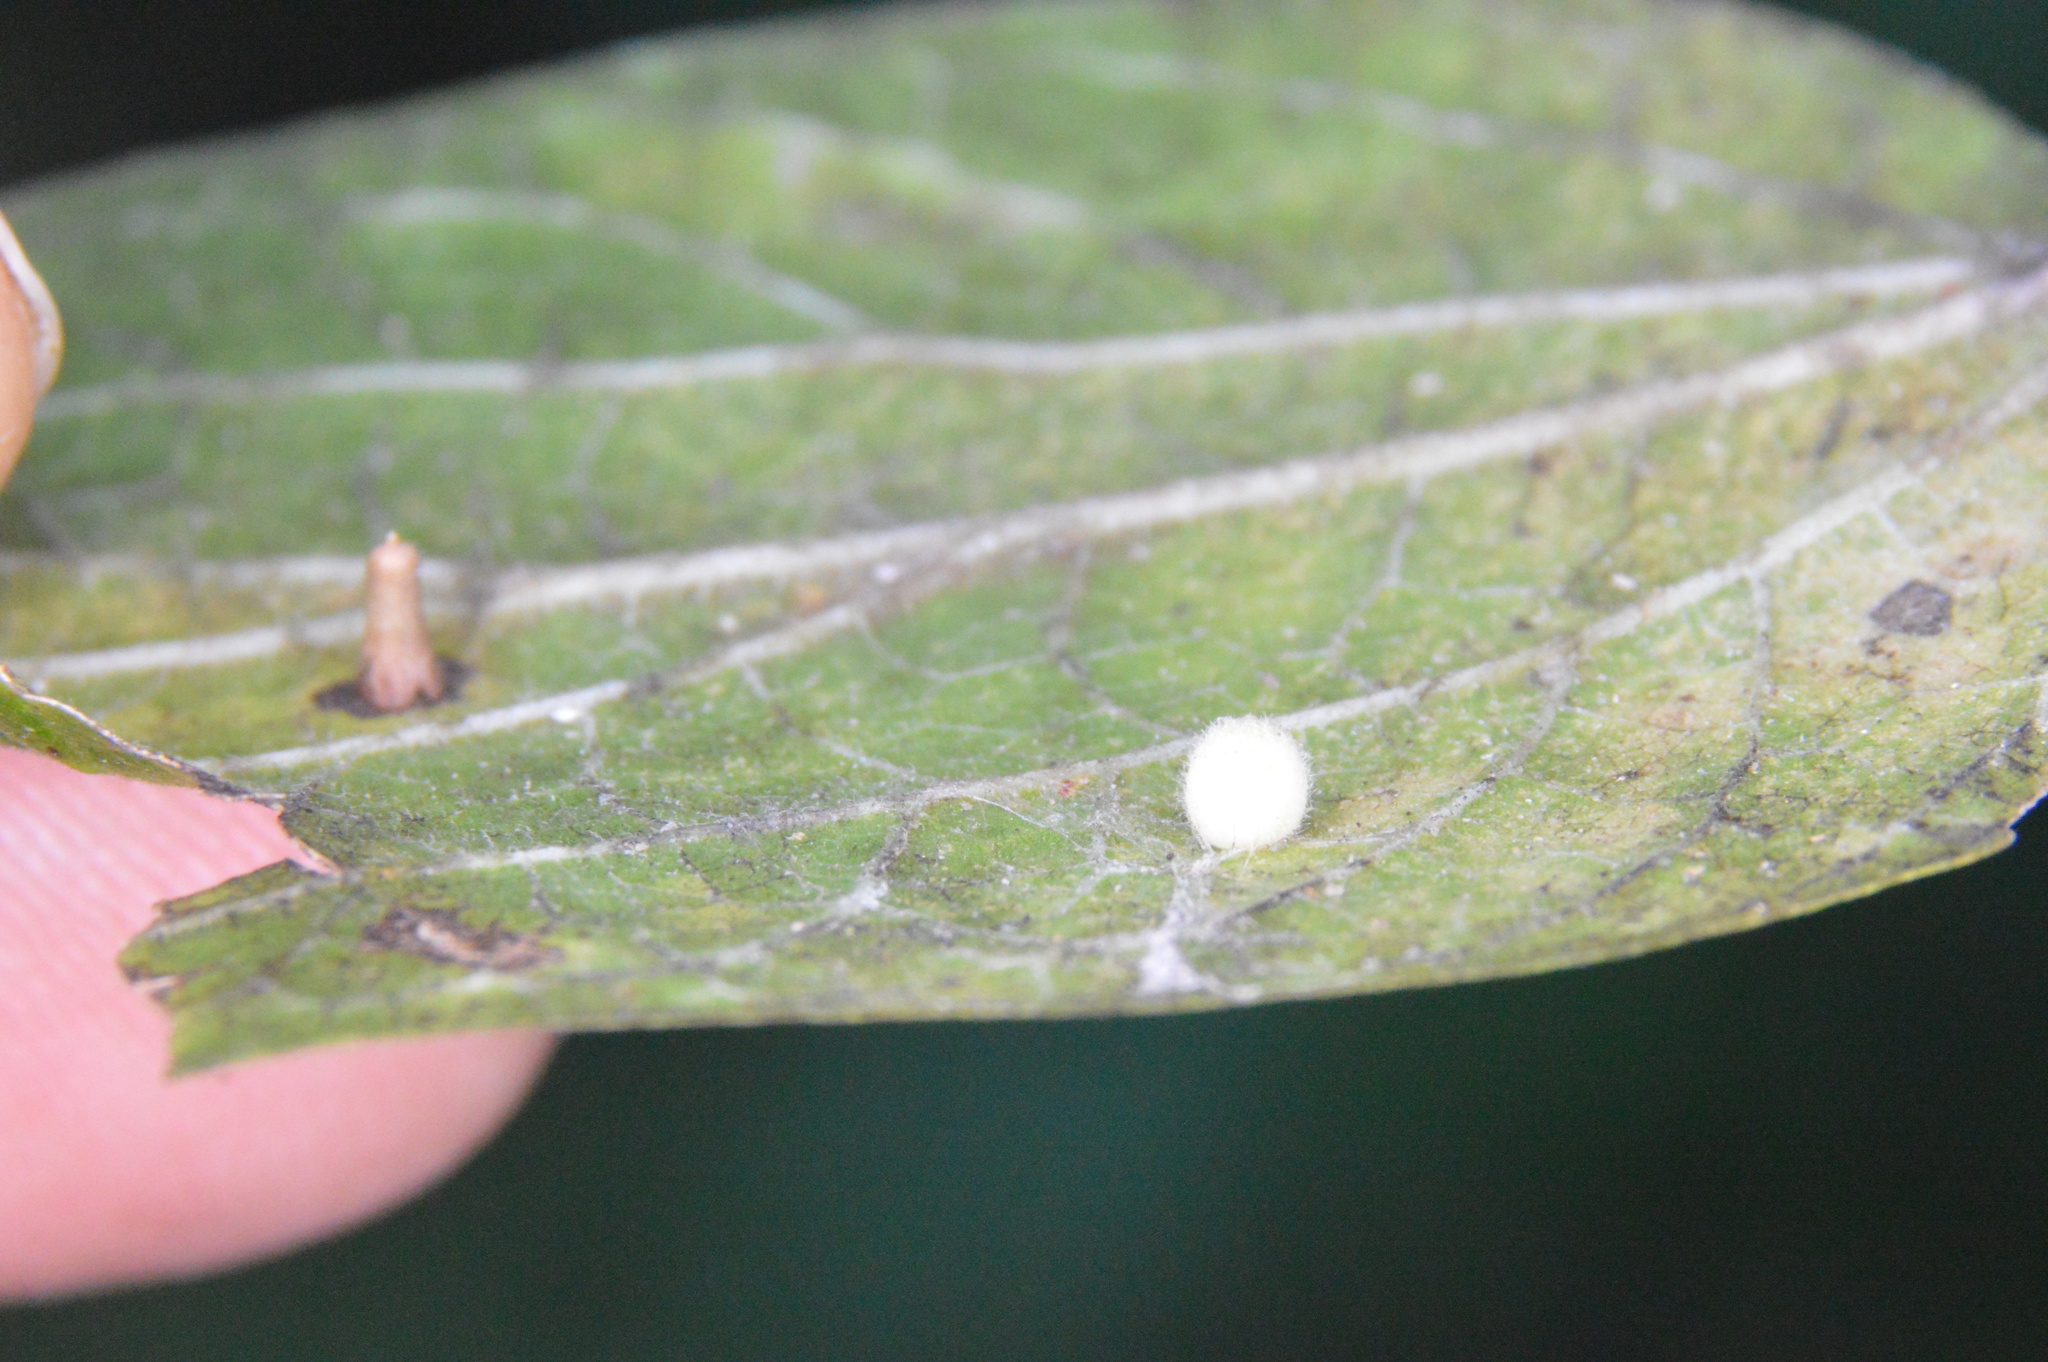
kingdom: Animalia
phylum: Arthropoda
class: Insecta
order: Diptera
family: Cecidomyiidae
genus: Celticecis
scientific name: Celticecis globosa
